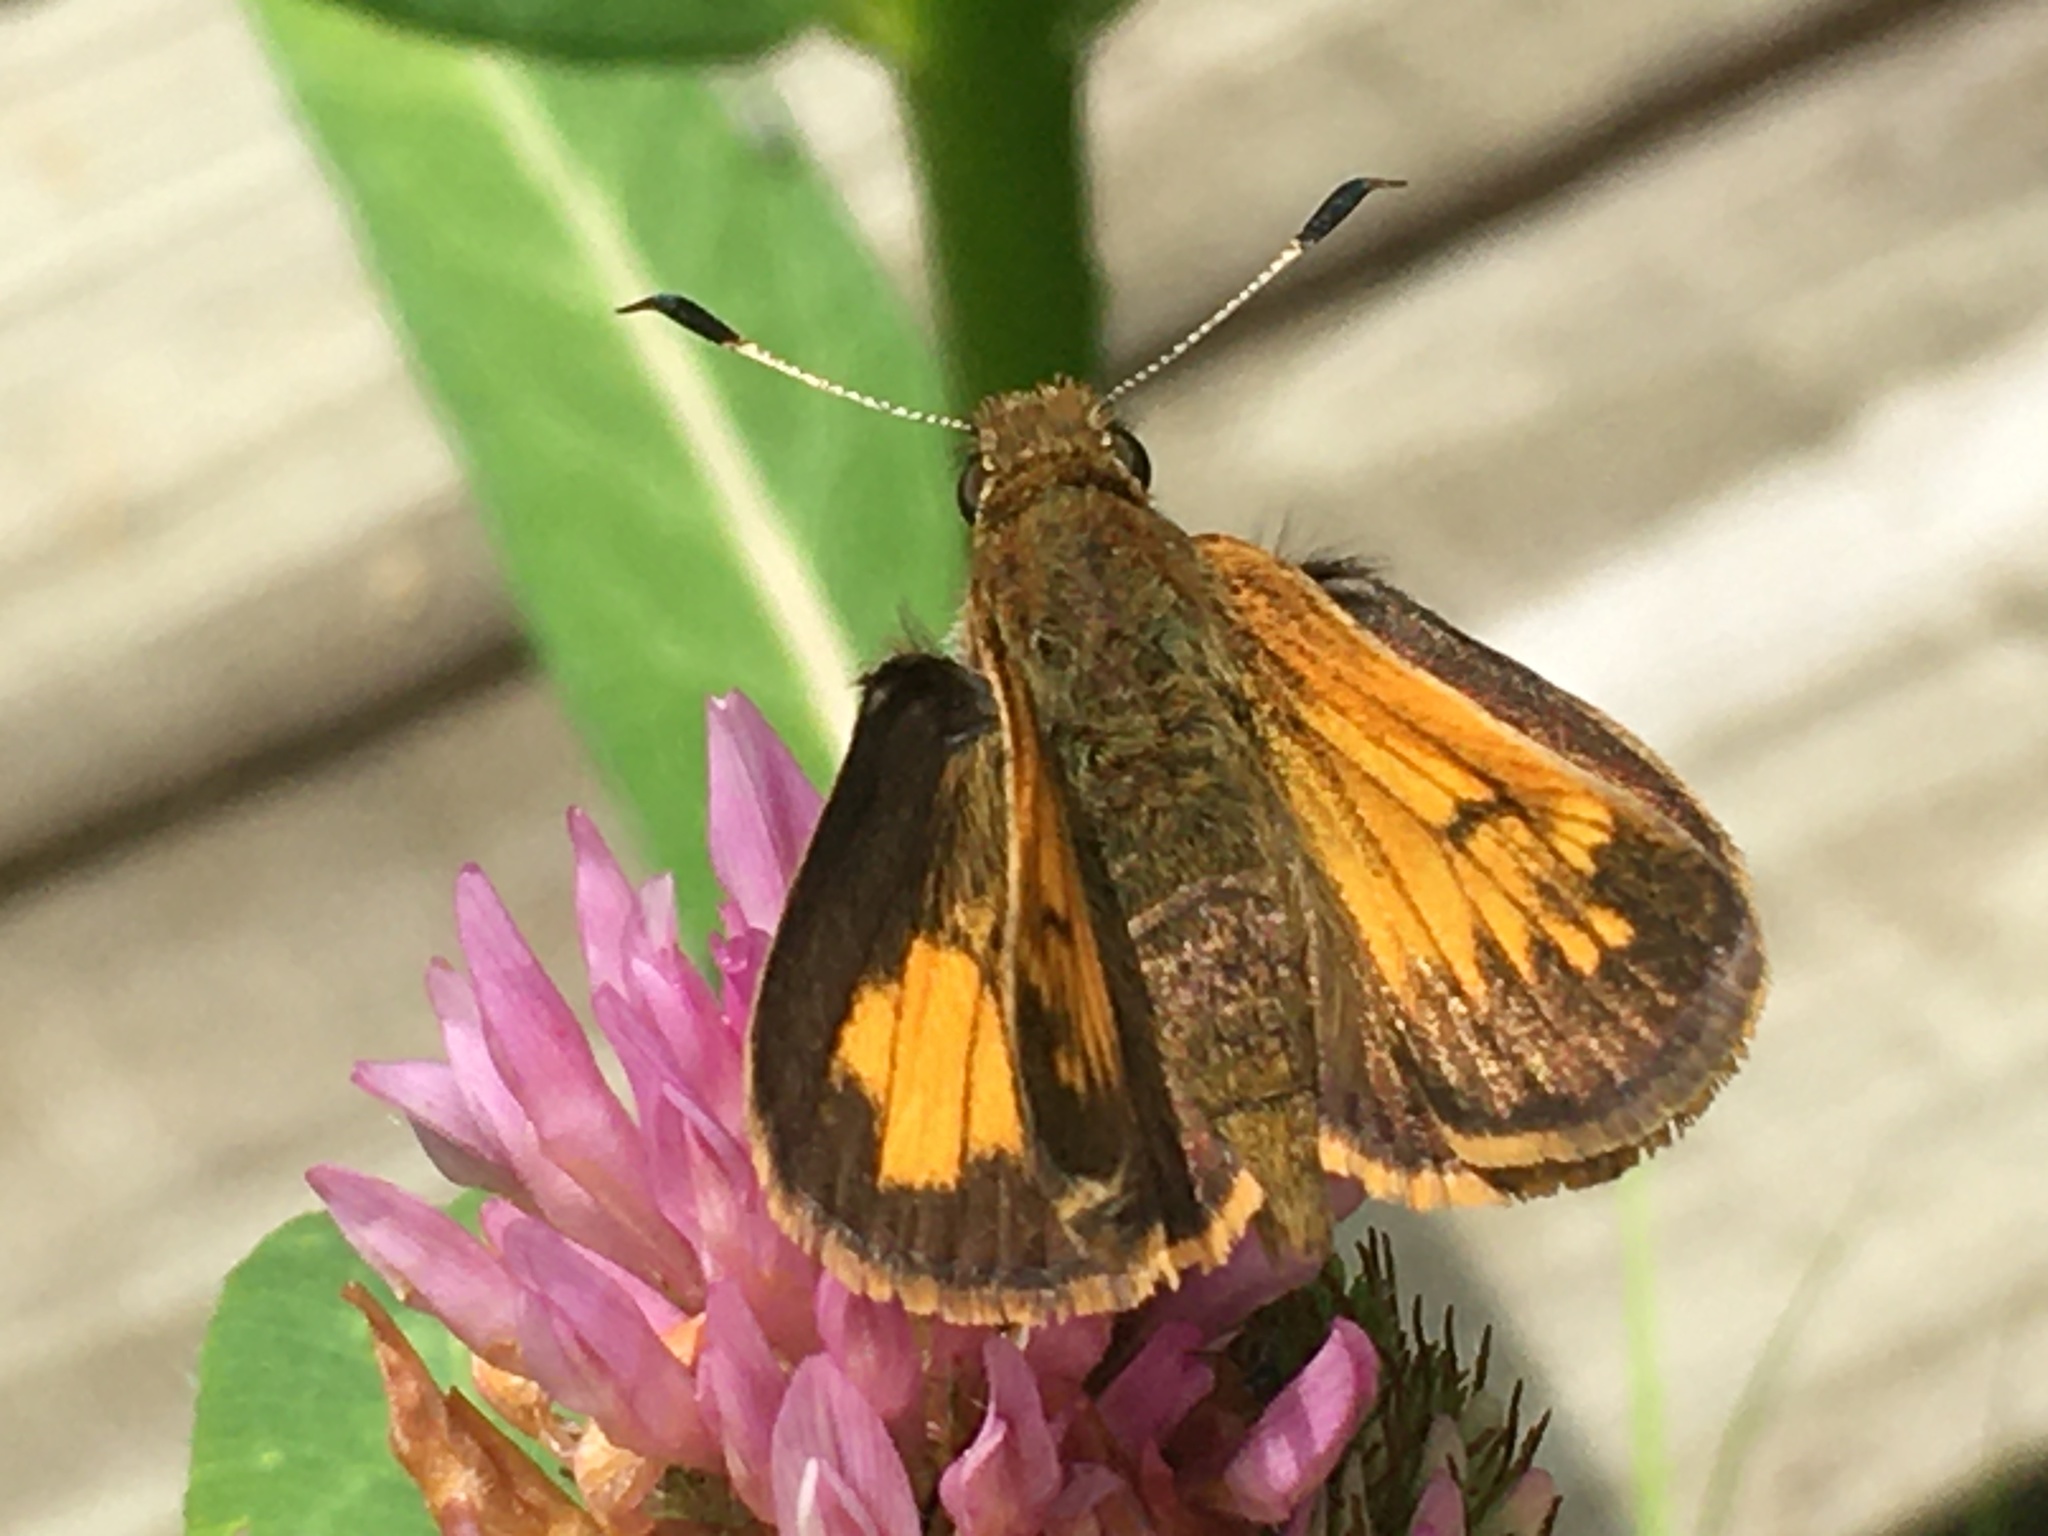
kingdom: Animalia
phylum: Arthropoda
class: Insecta
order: Lepidoptera
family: Hesperiidae
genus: Lon
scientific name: Lon hobomok
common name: Hobomok skipper
